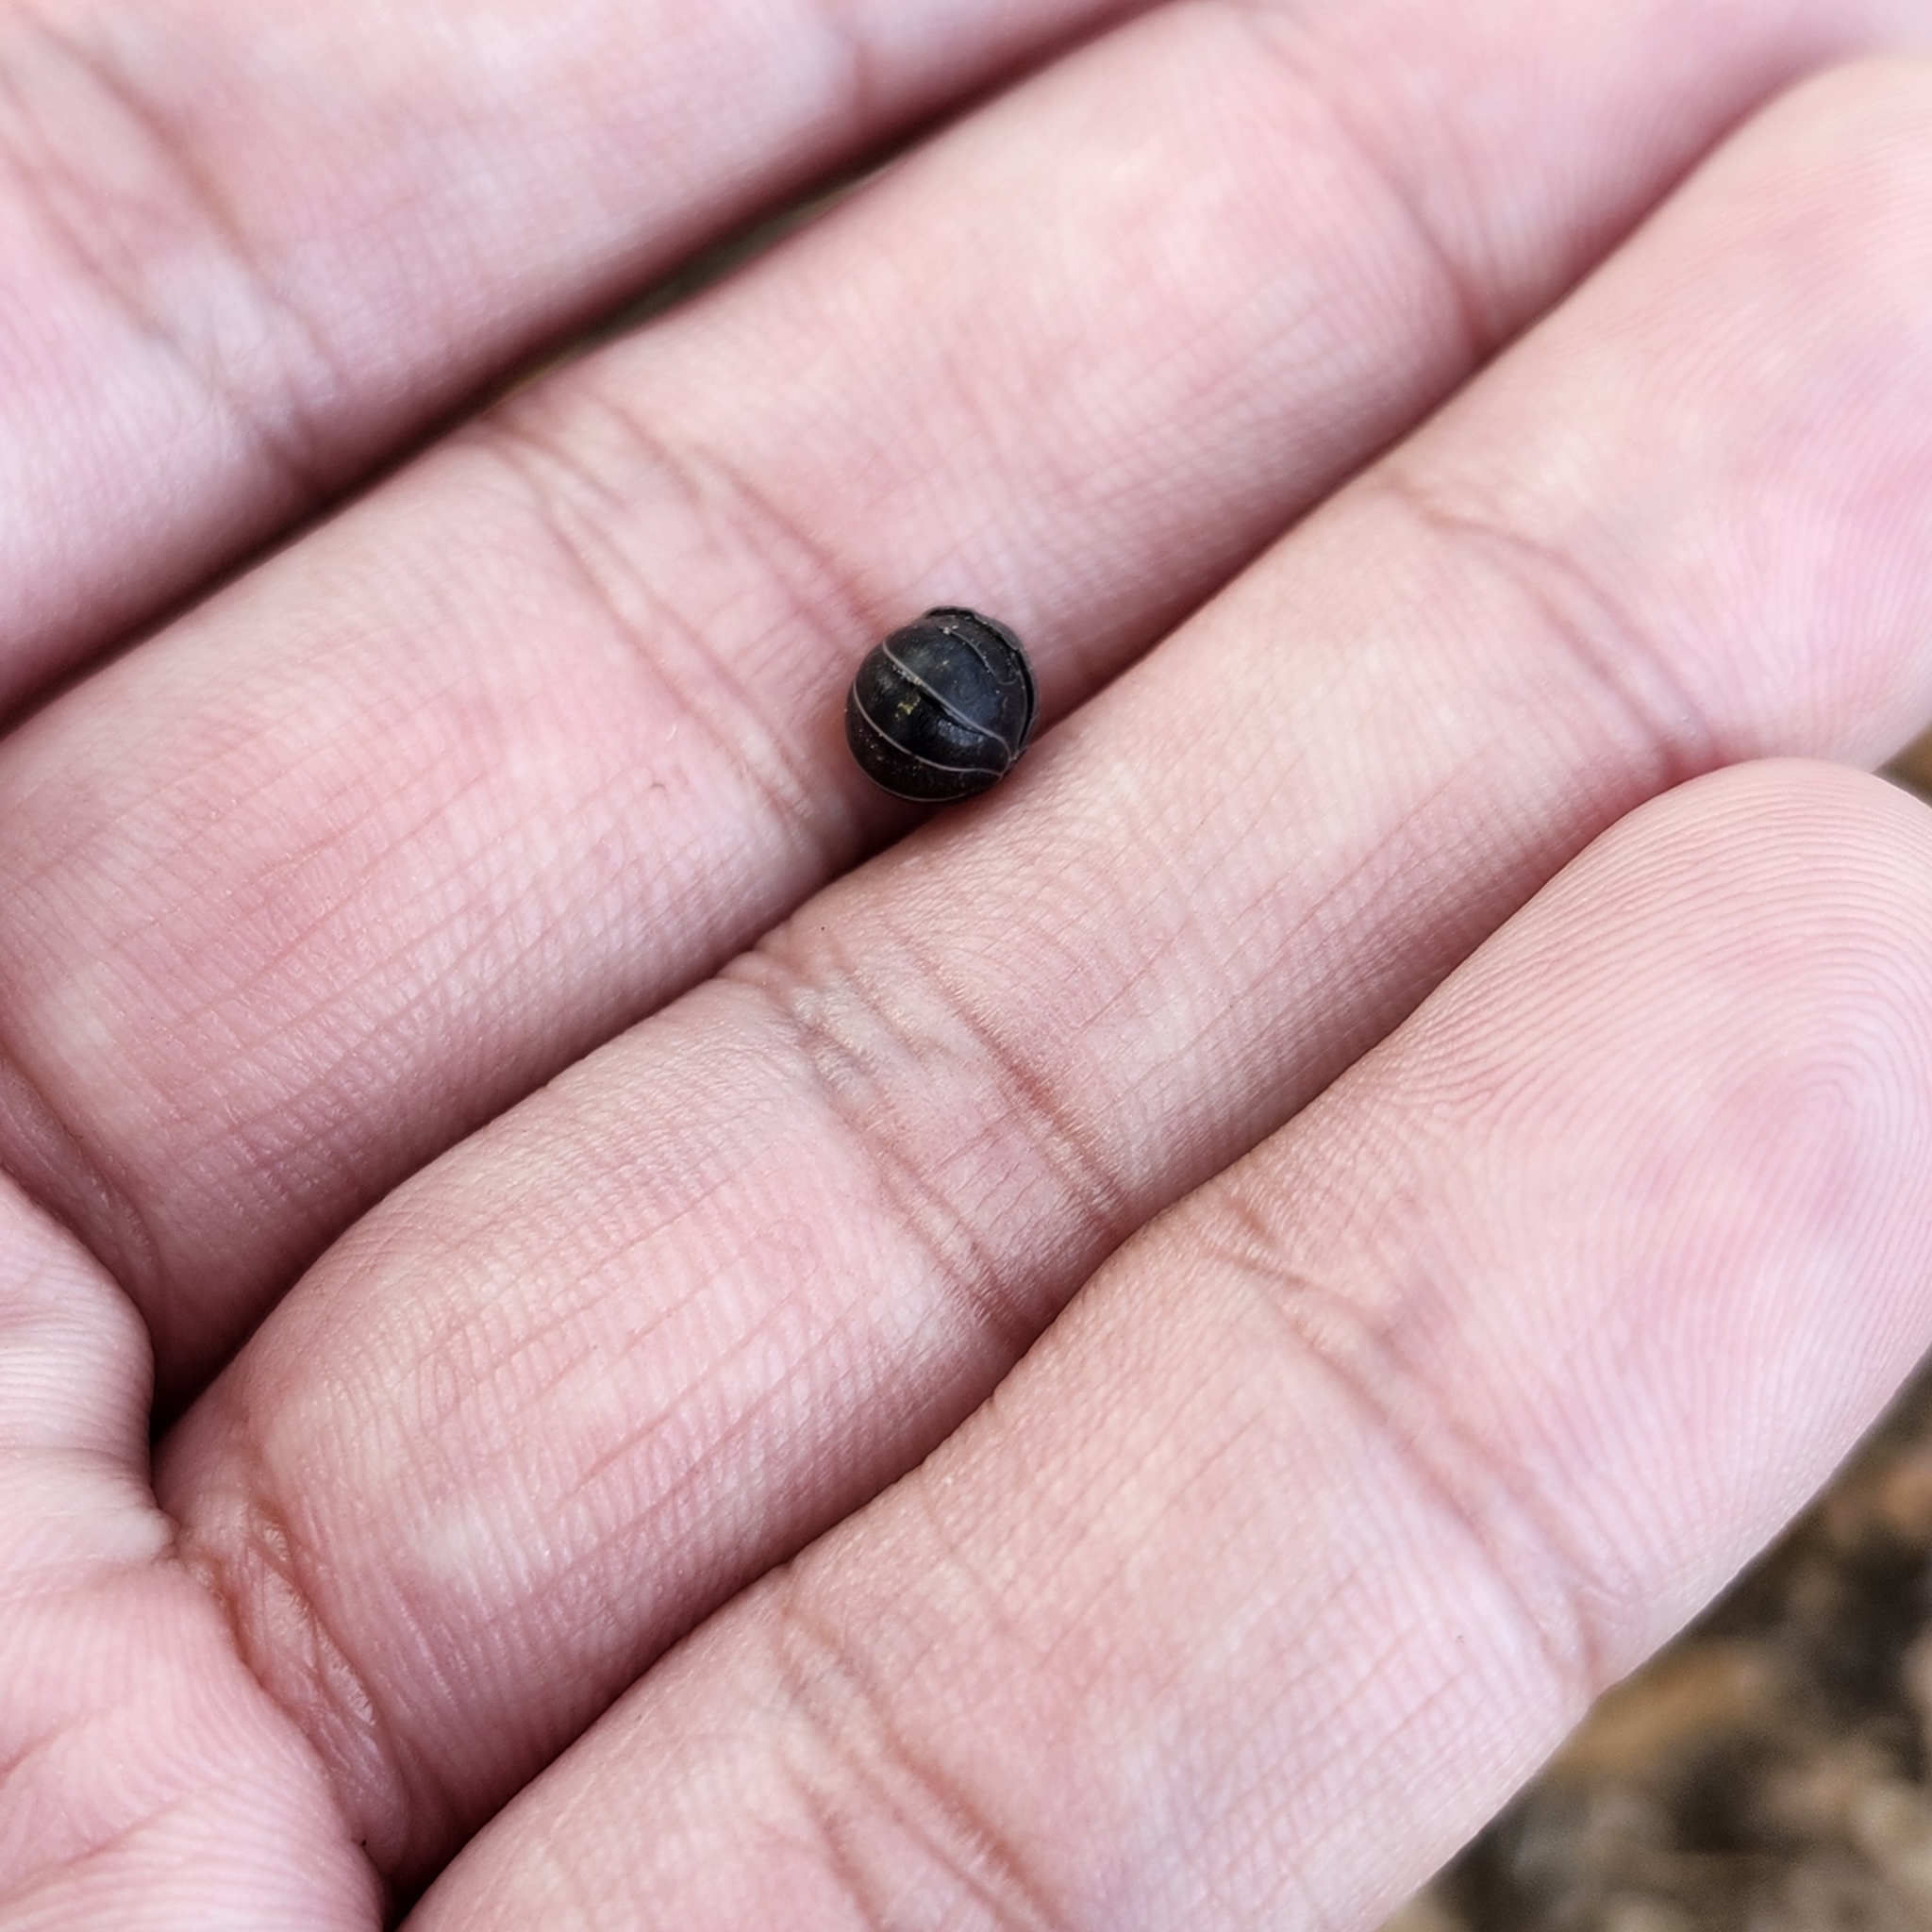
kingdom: Animalia
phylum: Arthropoda
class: Malacostraca
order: Isopoda
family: Armadillidiidae
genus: Armadillidium
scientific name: Armadillidium vulgare
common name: Common pill woodlouse
